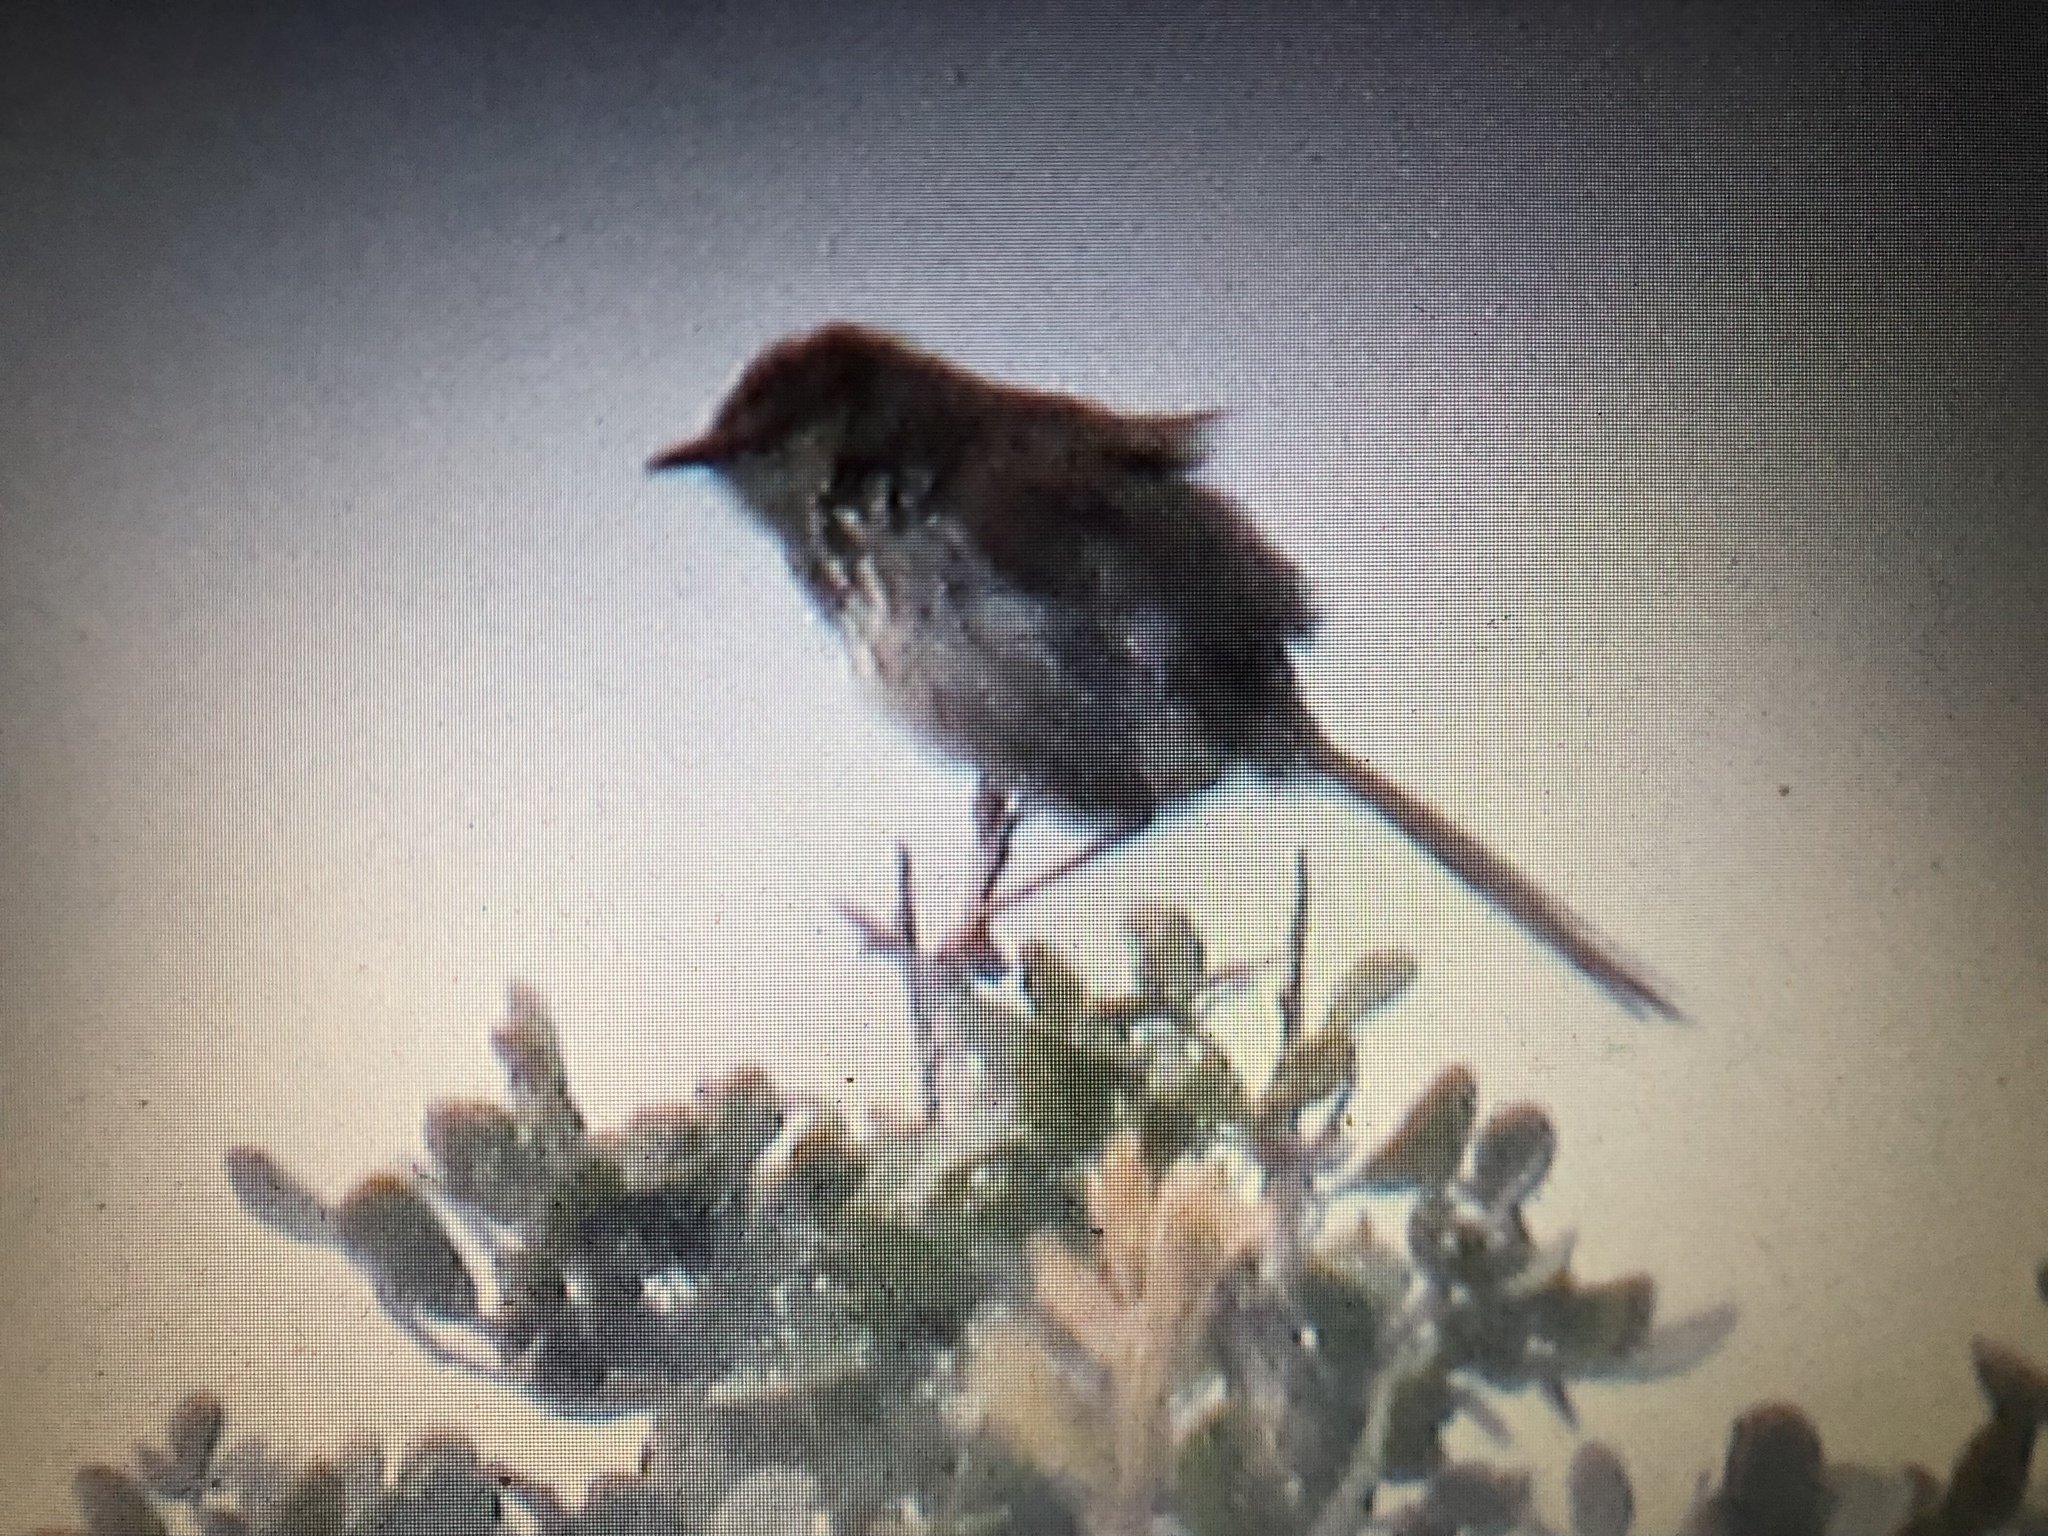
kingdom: Animalia
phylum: Chordata
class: Aves
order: Passeriformes
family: Cisticolidae
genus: Cisticola
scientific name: Cisticola subruficapilla
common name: Grey-backed cisticola
